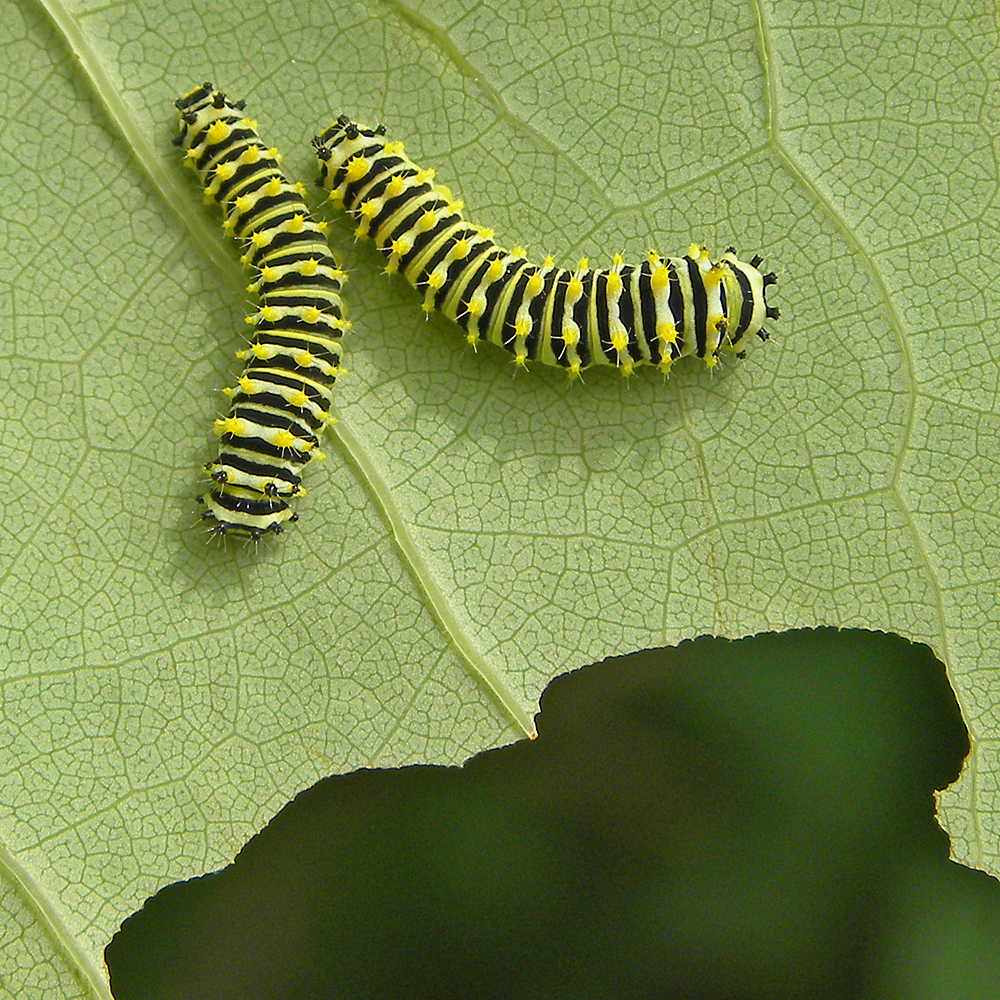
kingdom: Animalia
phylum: Arthropoda
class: Insecta
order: Lepidoptera
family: Saturniidae
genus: Callosamia
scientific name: Callosamia promethea
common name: Promethea silkmoth
